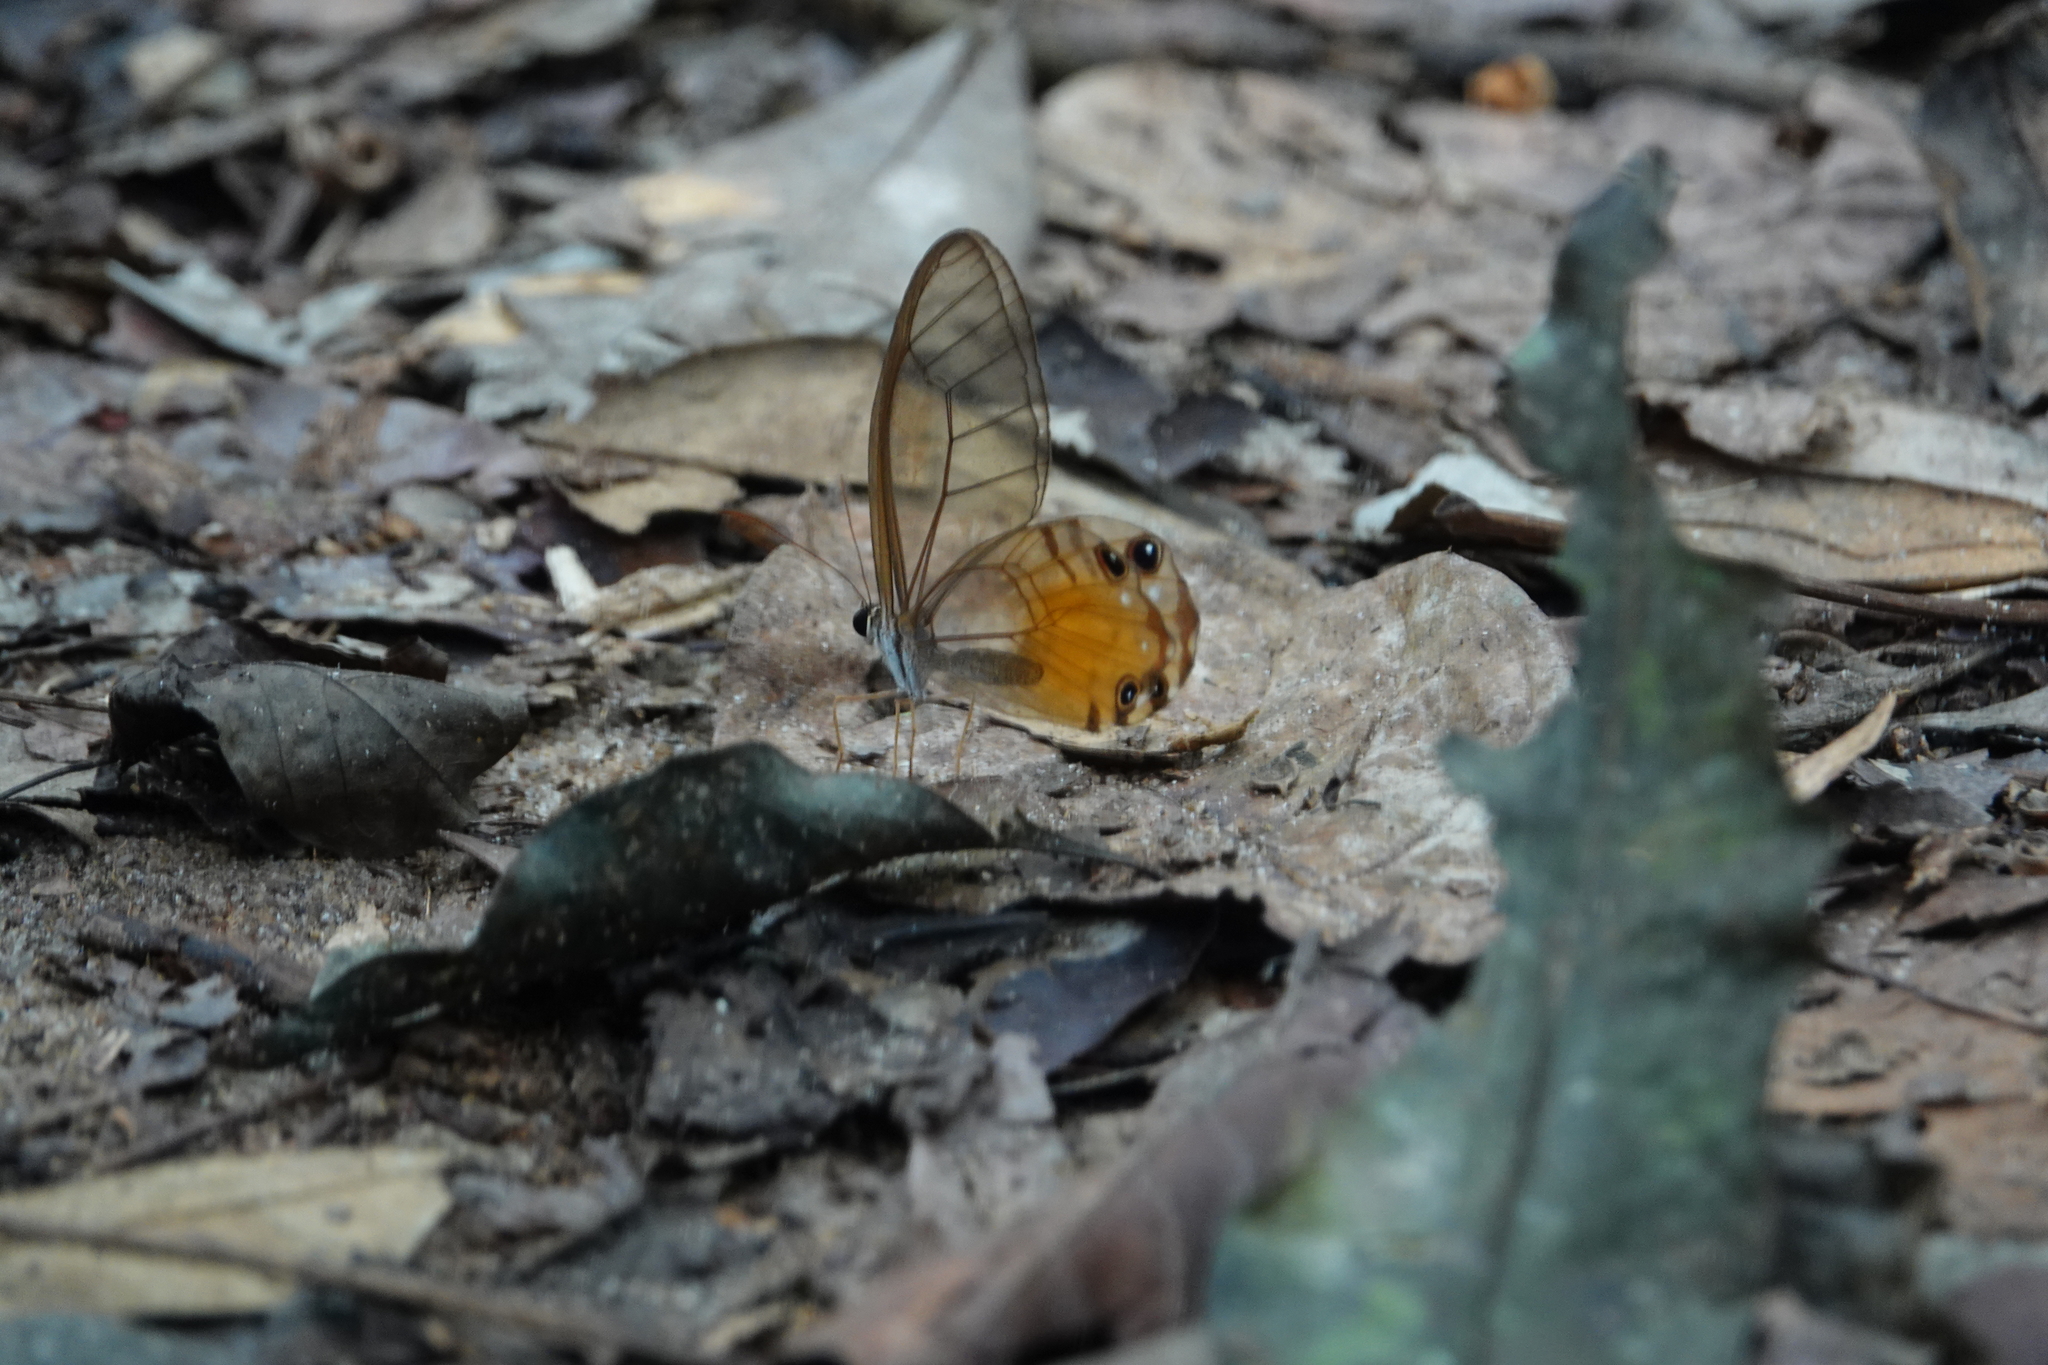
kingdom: Animalia
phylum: Arthropoda
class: Insecta
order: Lepidoptera
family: Nymphalidae
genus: Haetera
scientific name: Haetera piera
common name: Amber phantom
